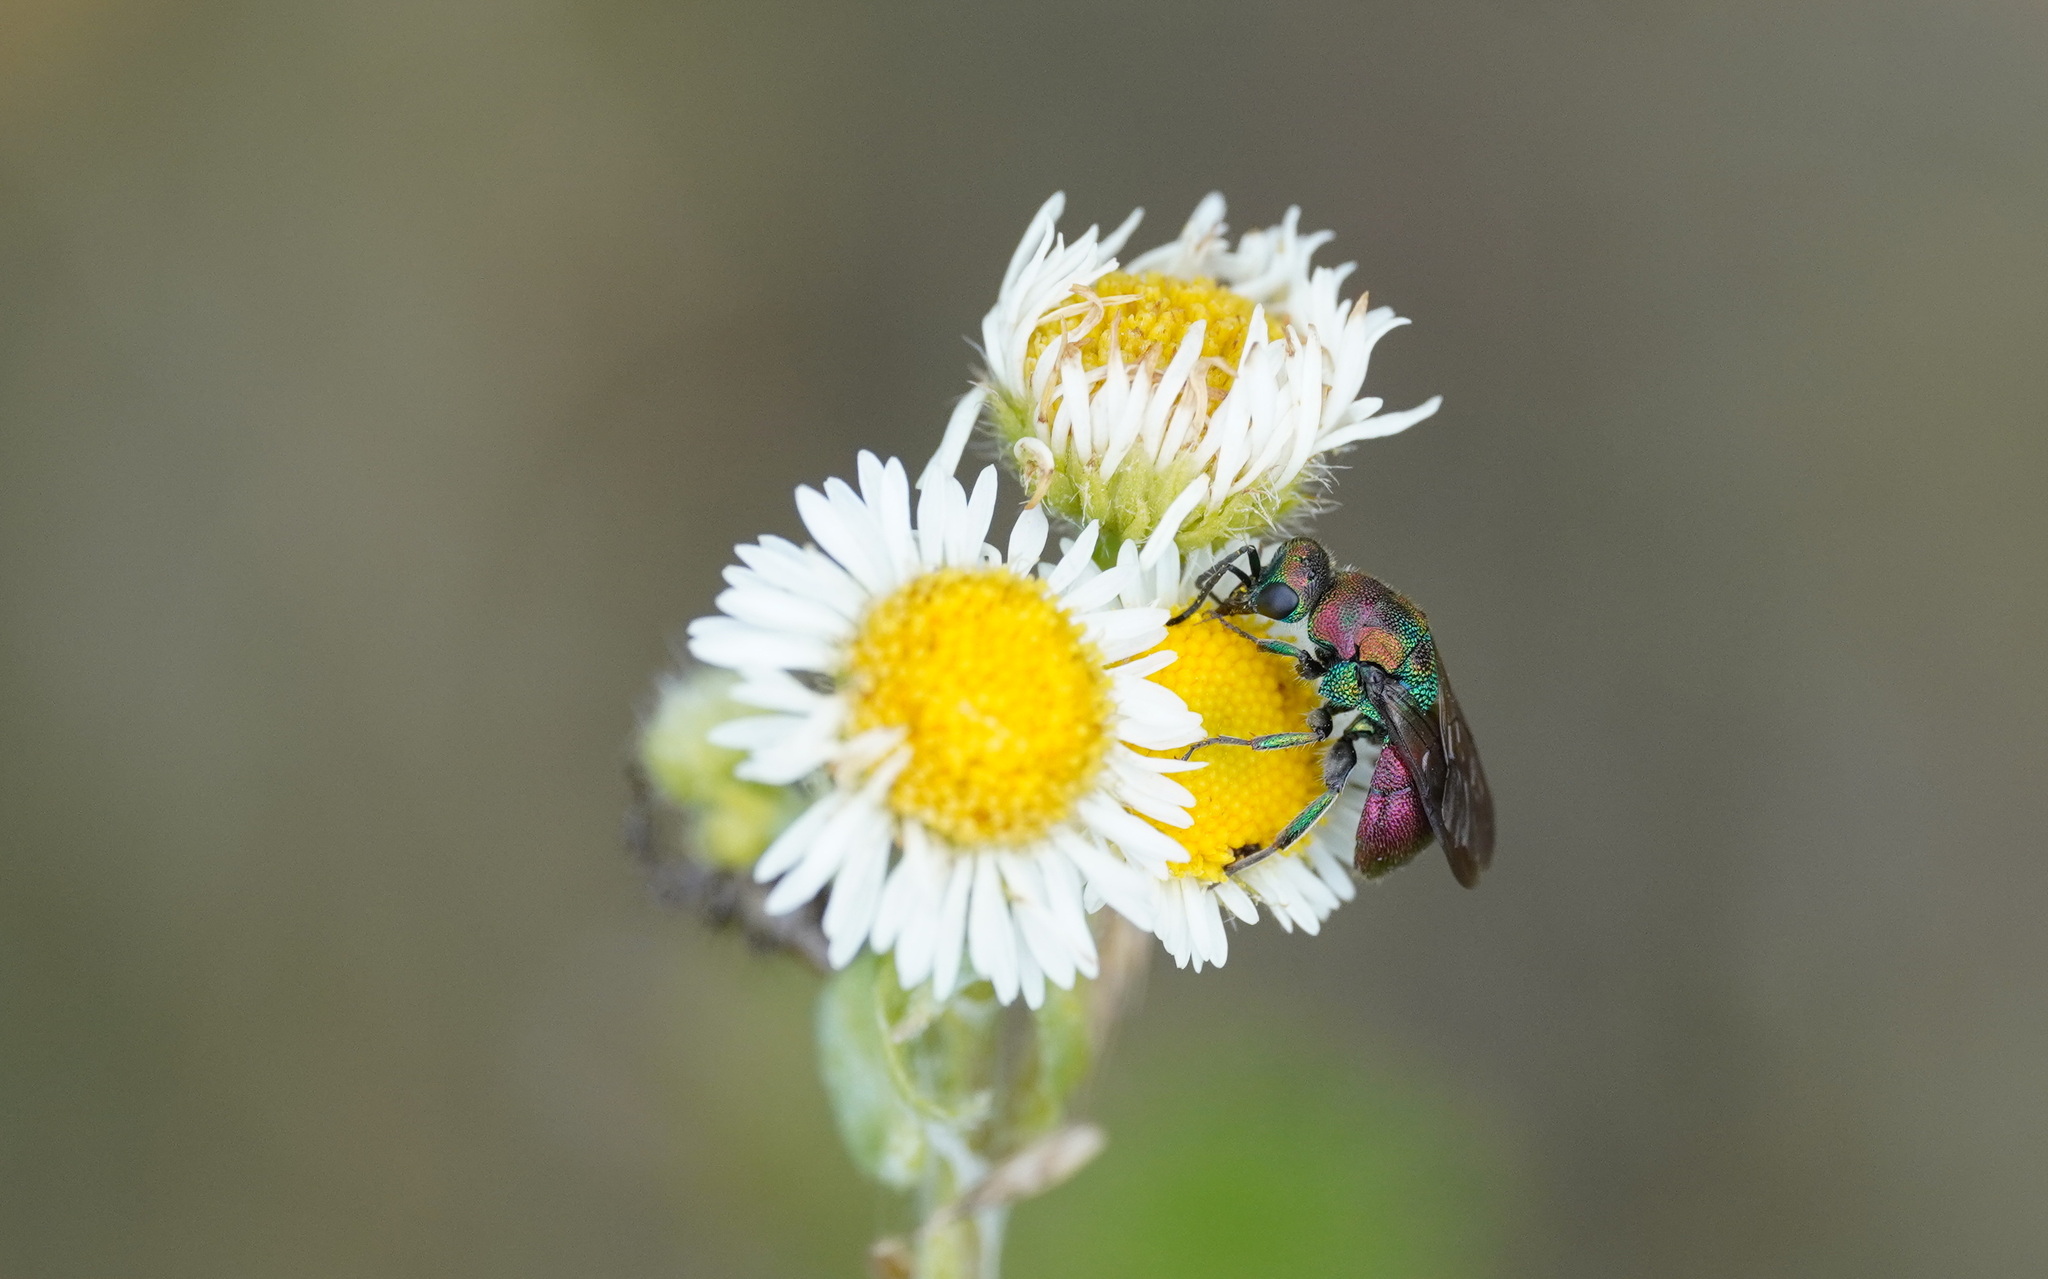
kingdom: Animalia
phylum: Arthropoda
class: Insecta
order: Hymenoptera
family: Chrysididae
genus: Hedychrum
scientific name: Hedychrum rutilans
